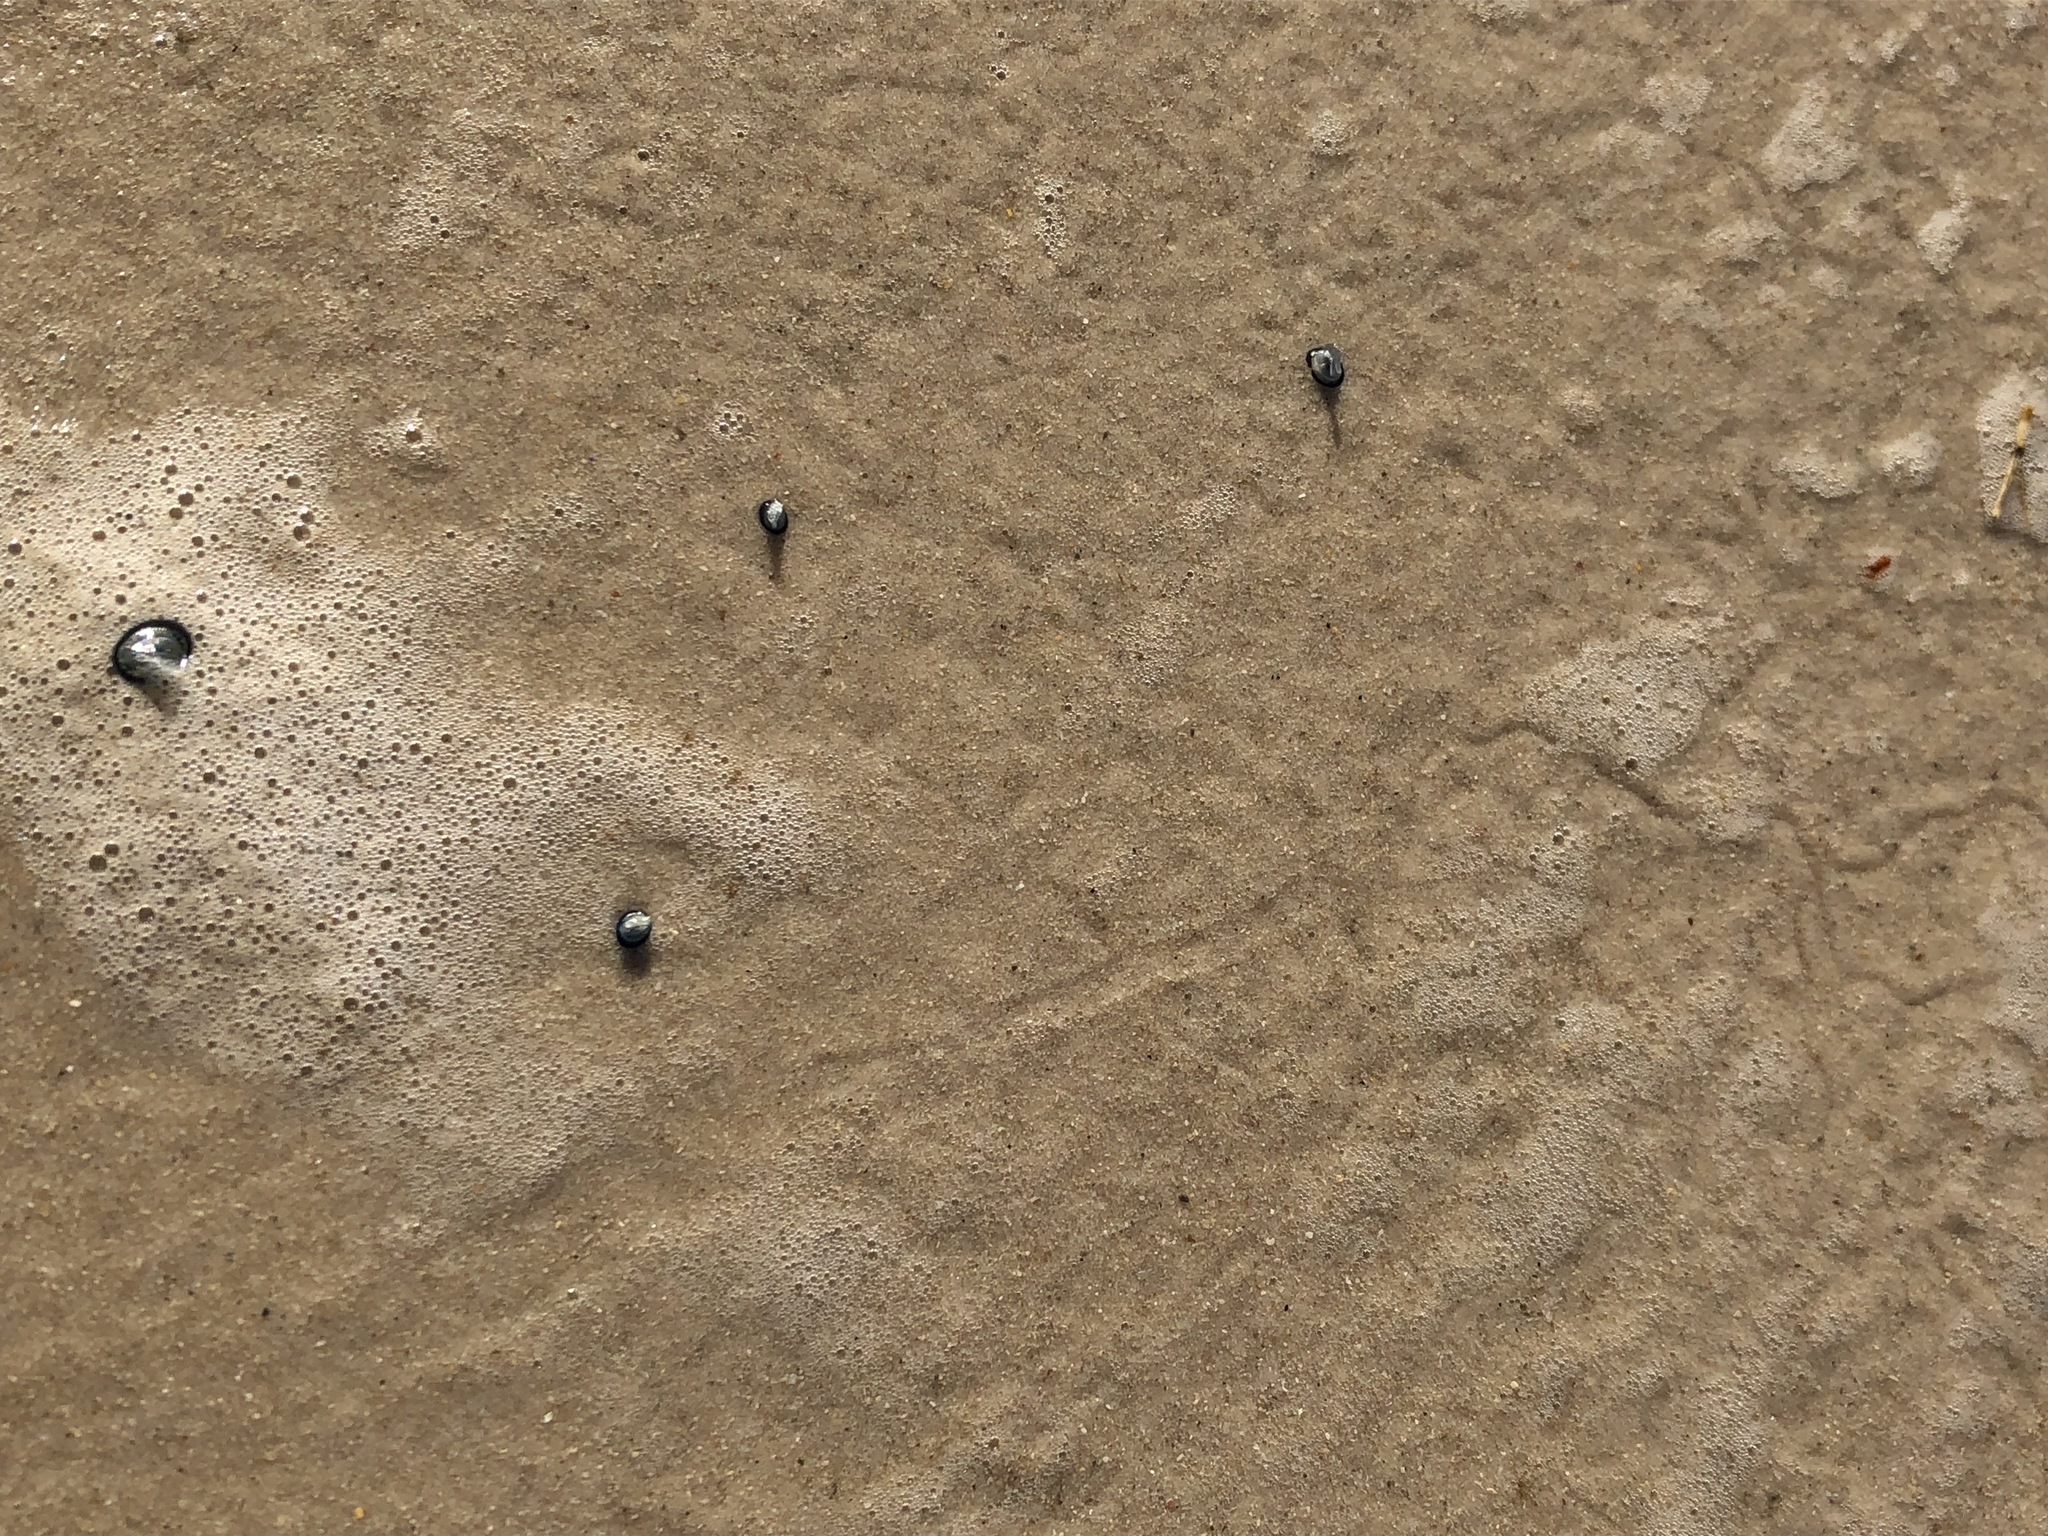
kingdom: Animalia
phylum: Cnidaria
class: Hydrozoa
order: Anthoathecata
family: Porpitidae
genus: Velella
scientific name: Velella velella
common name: By-the-wind-sailor
